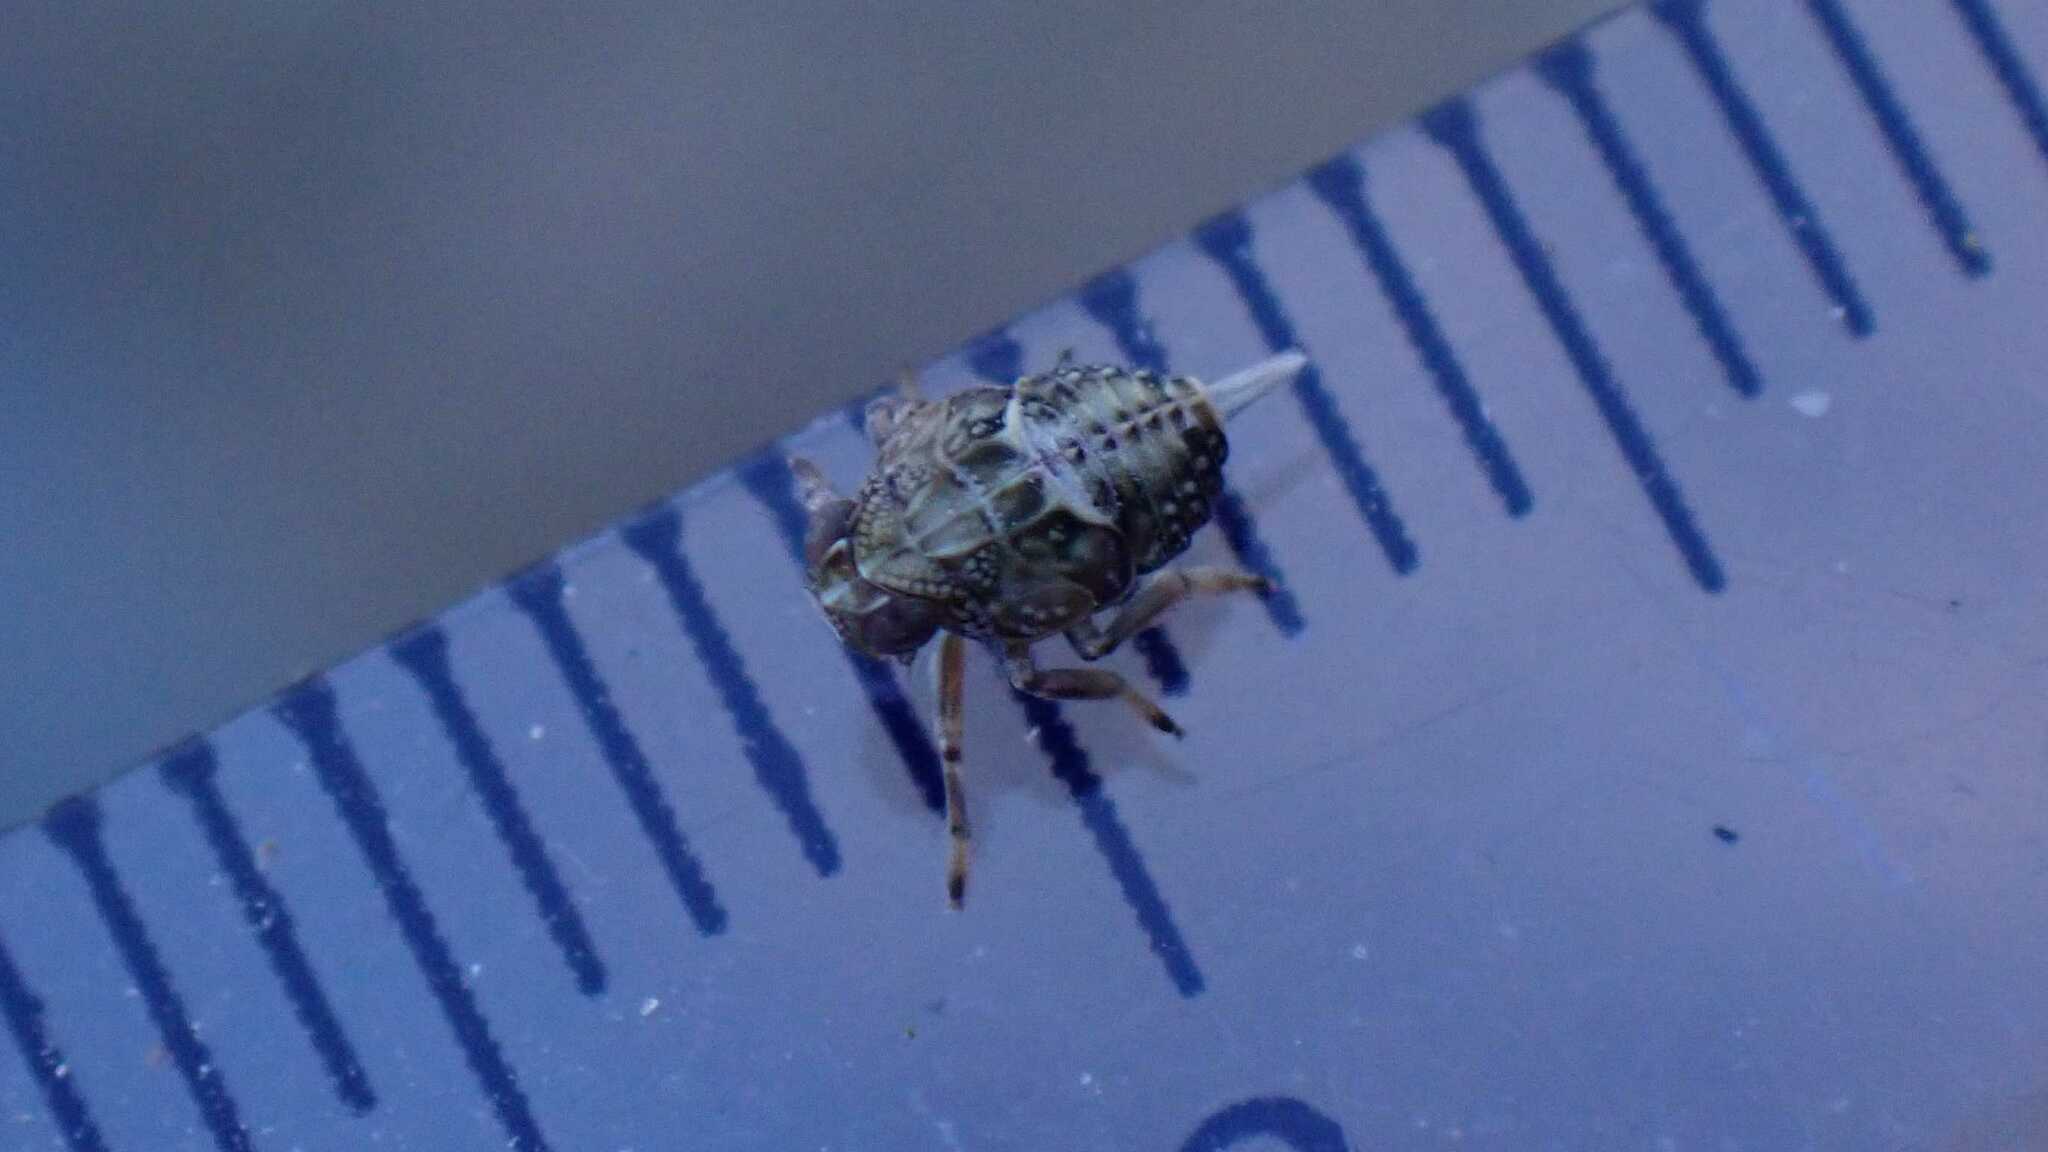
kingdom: Animalia
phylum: Arthropoda
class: Insecta
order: Hemiptera
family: Issidae
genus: Issus
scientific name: Issus coleoptratus
